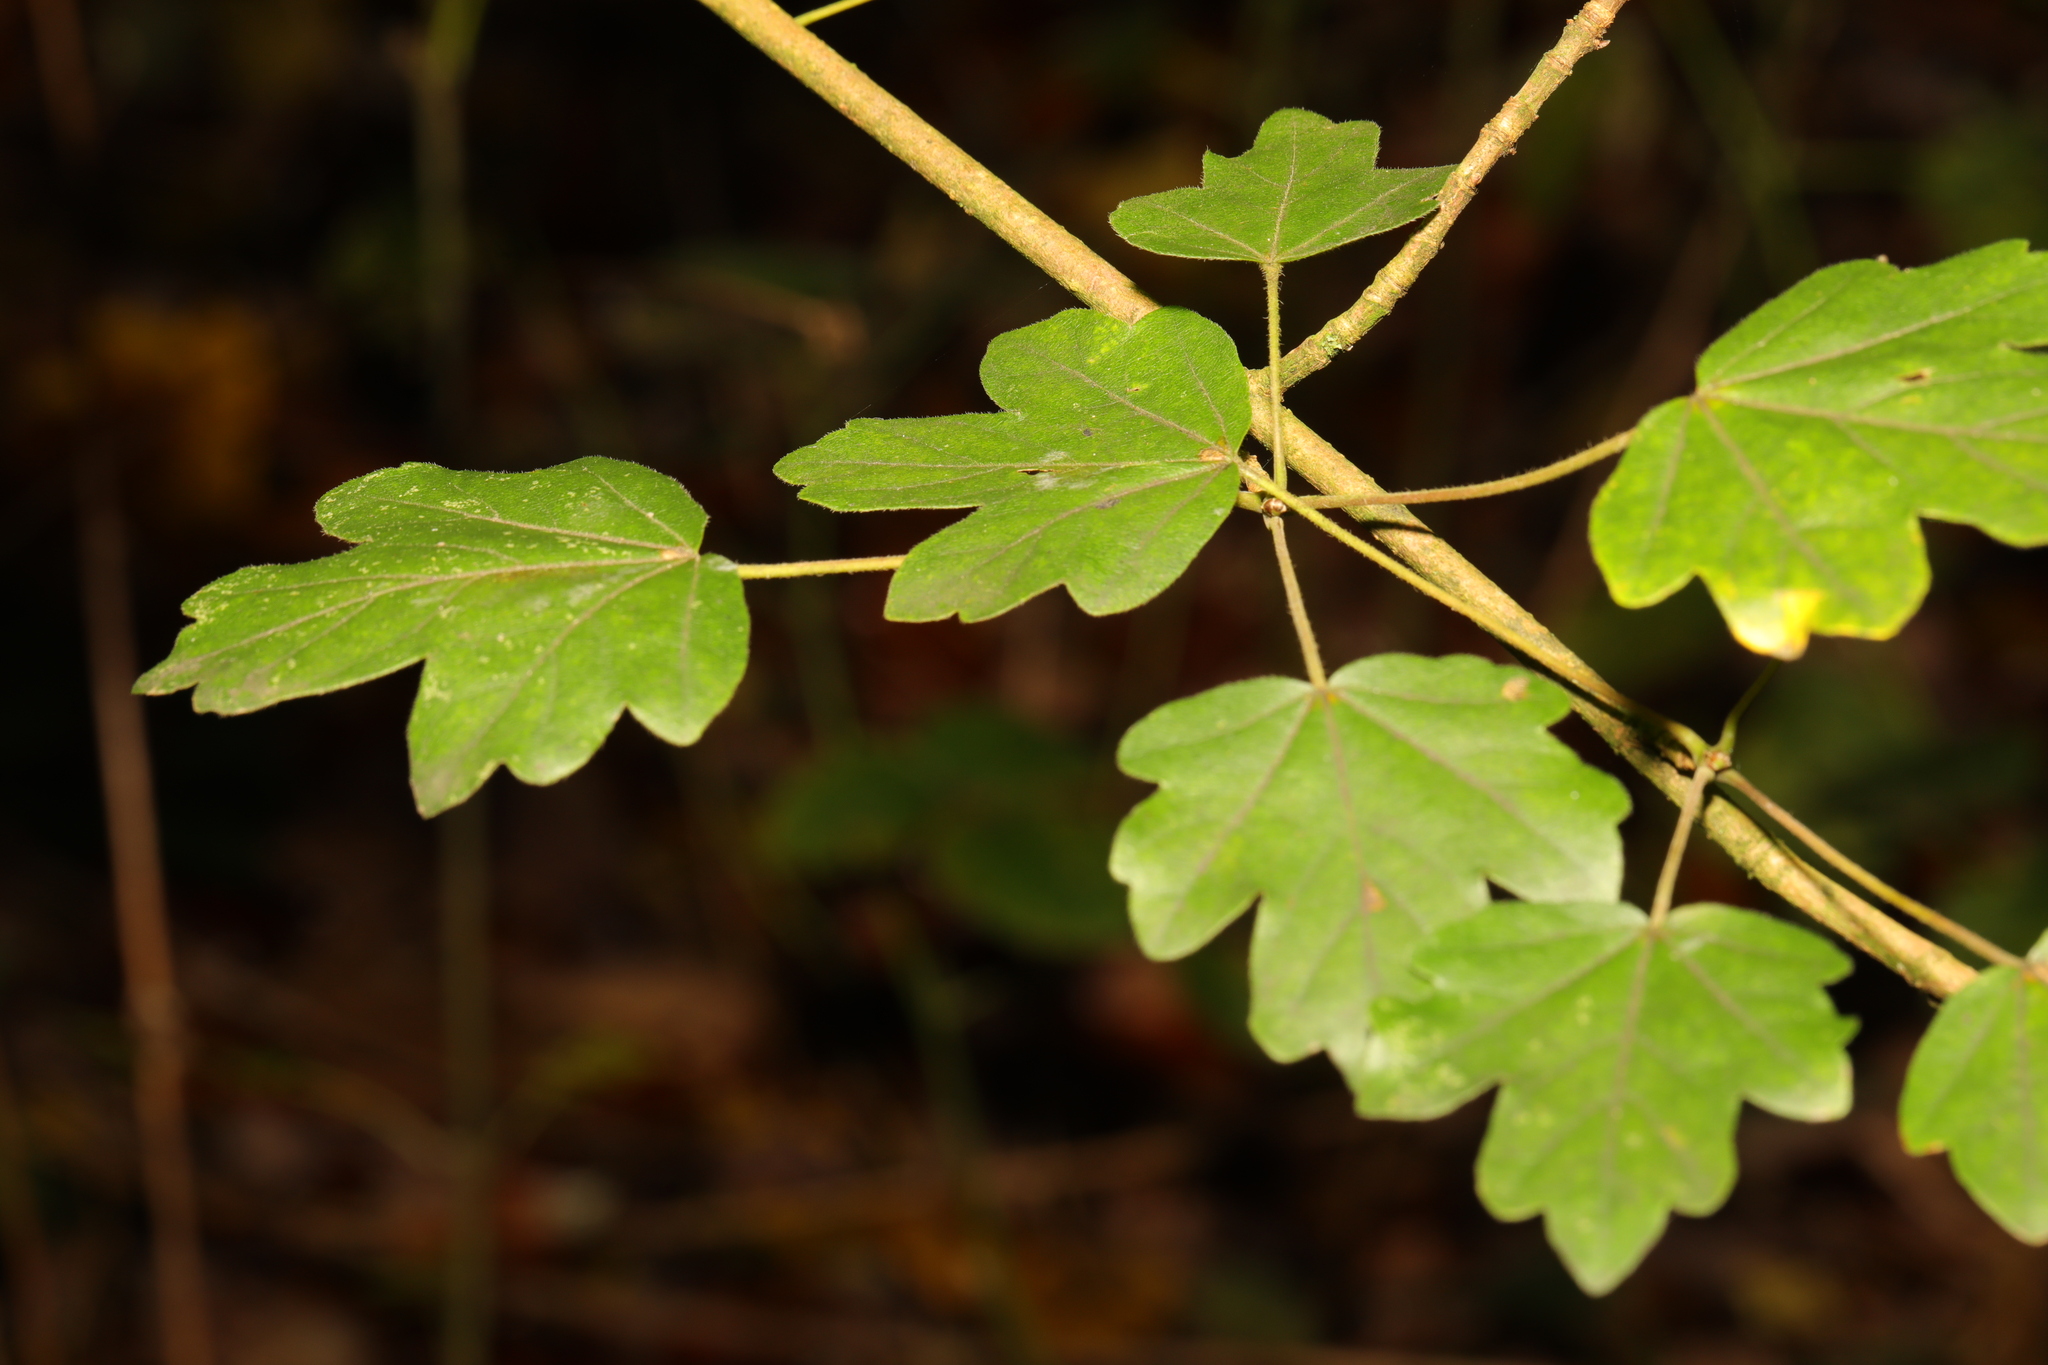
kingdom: Plantae
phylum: Tracheophyta
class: Magnoliopsida
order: Sapindales
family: Sapindaceae
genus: Acer
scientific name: Acer campestre
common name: Field maple
